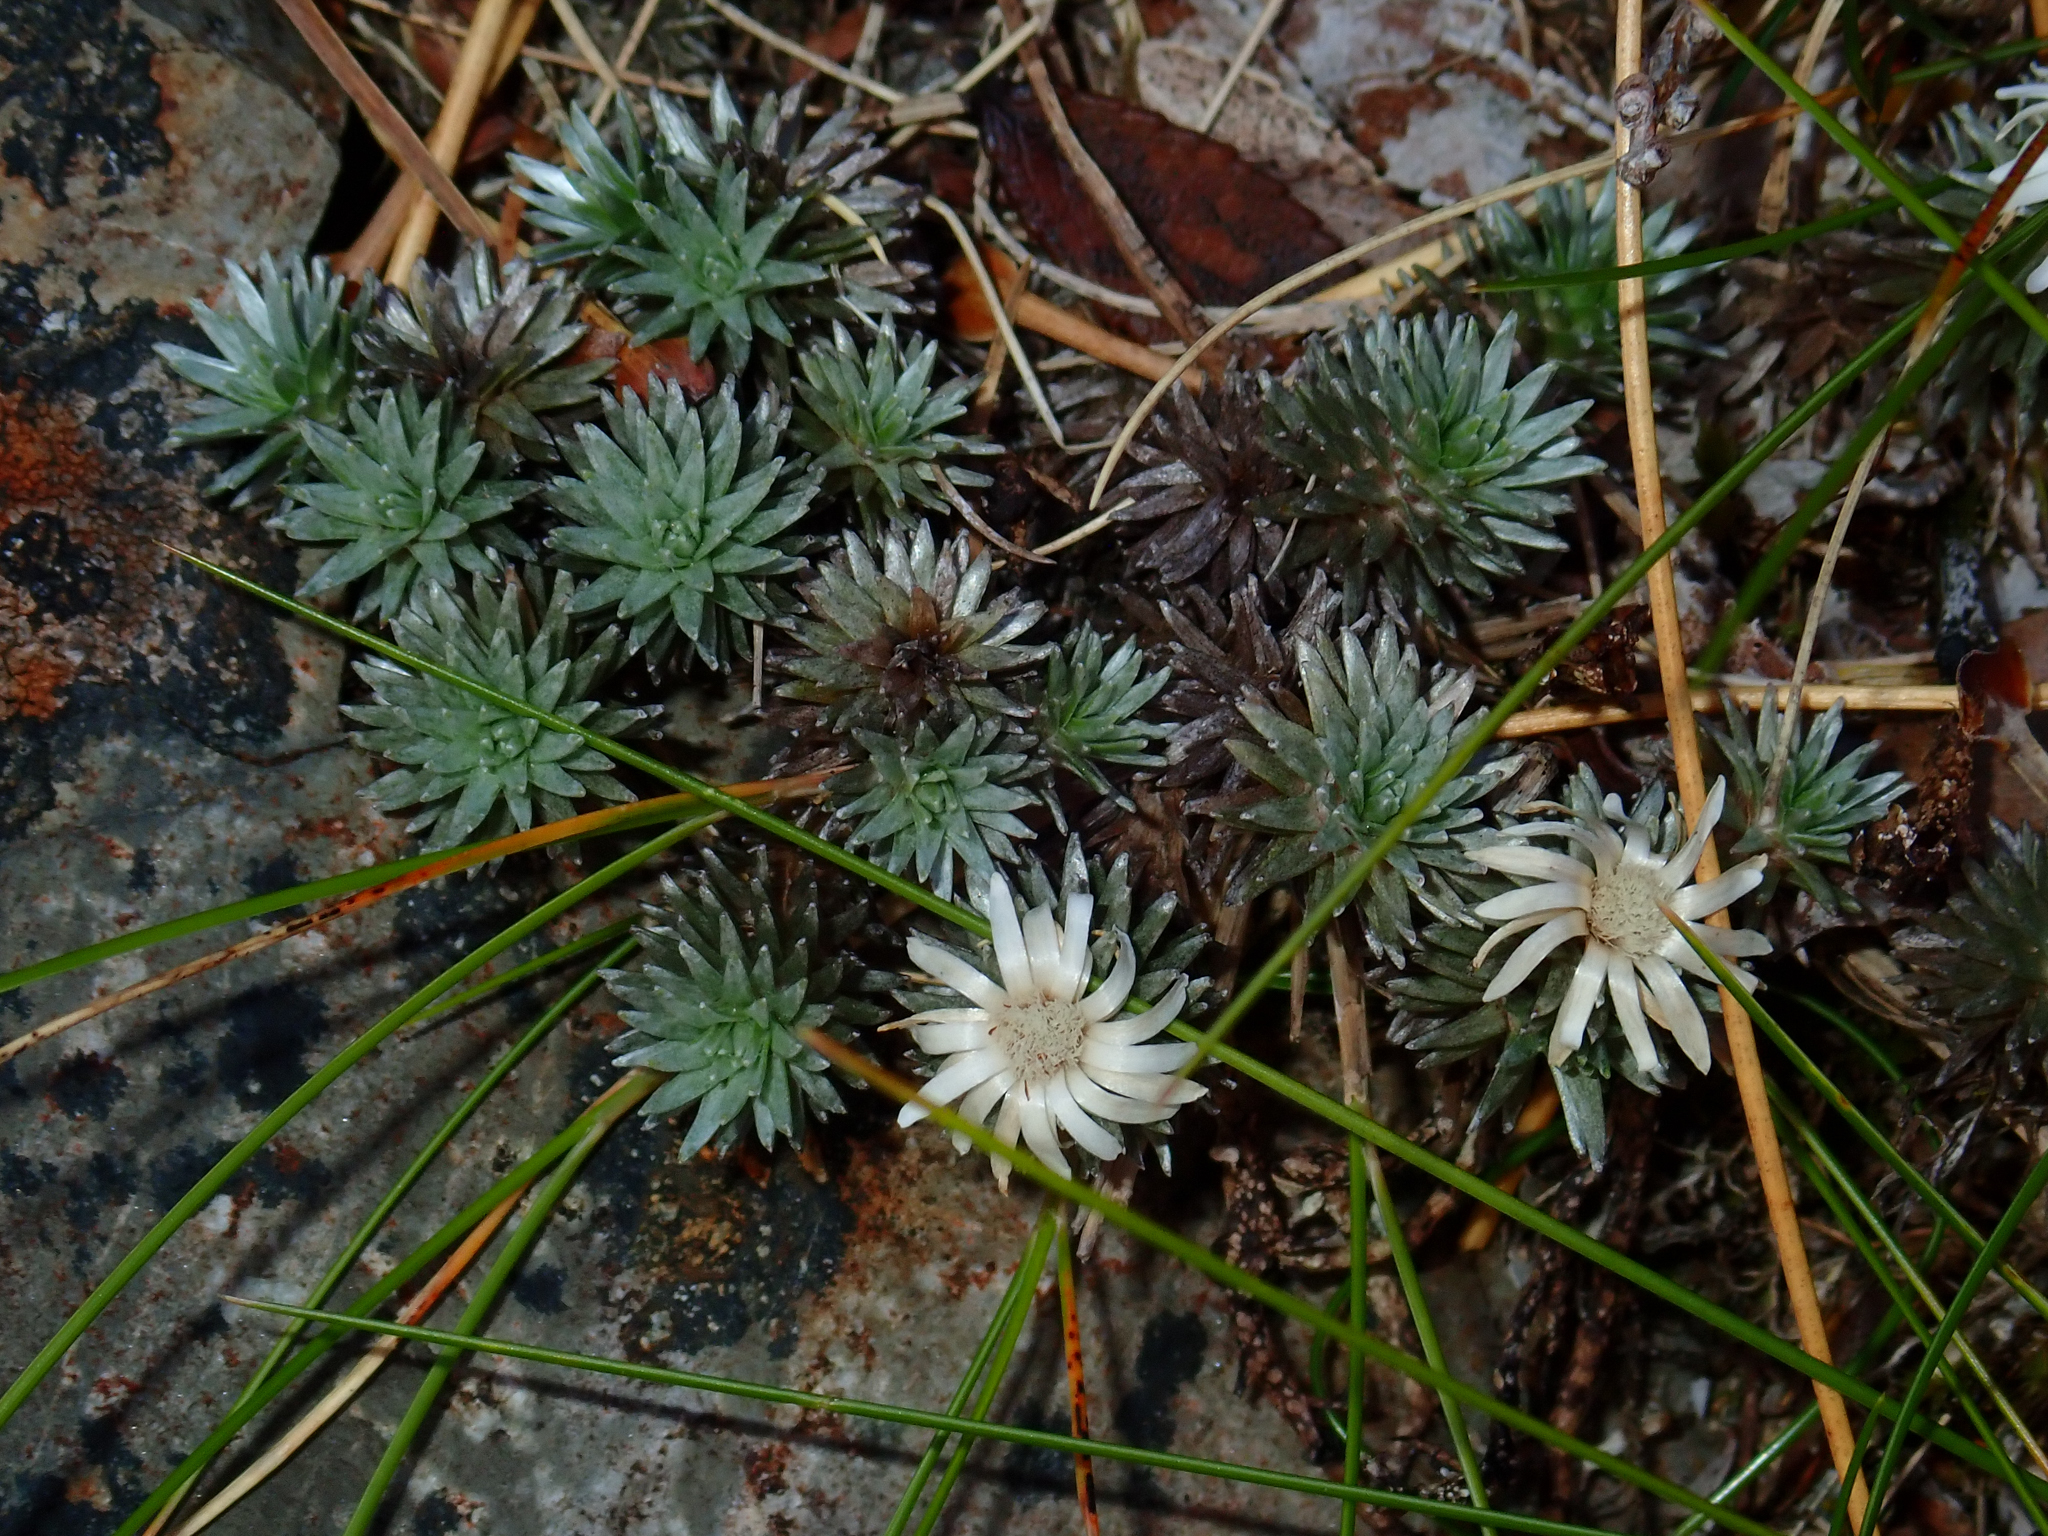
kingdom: Plantae
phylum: Tracheophyta
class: Magnoliopsida
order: Asterales
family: Asteraceae
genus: Raoulia
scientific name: Raoulia grandiflora
